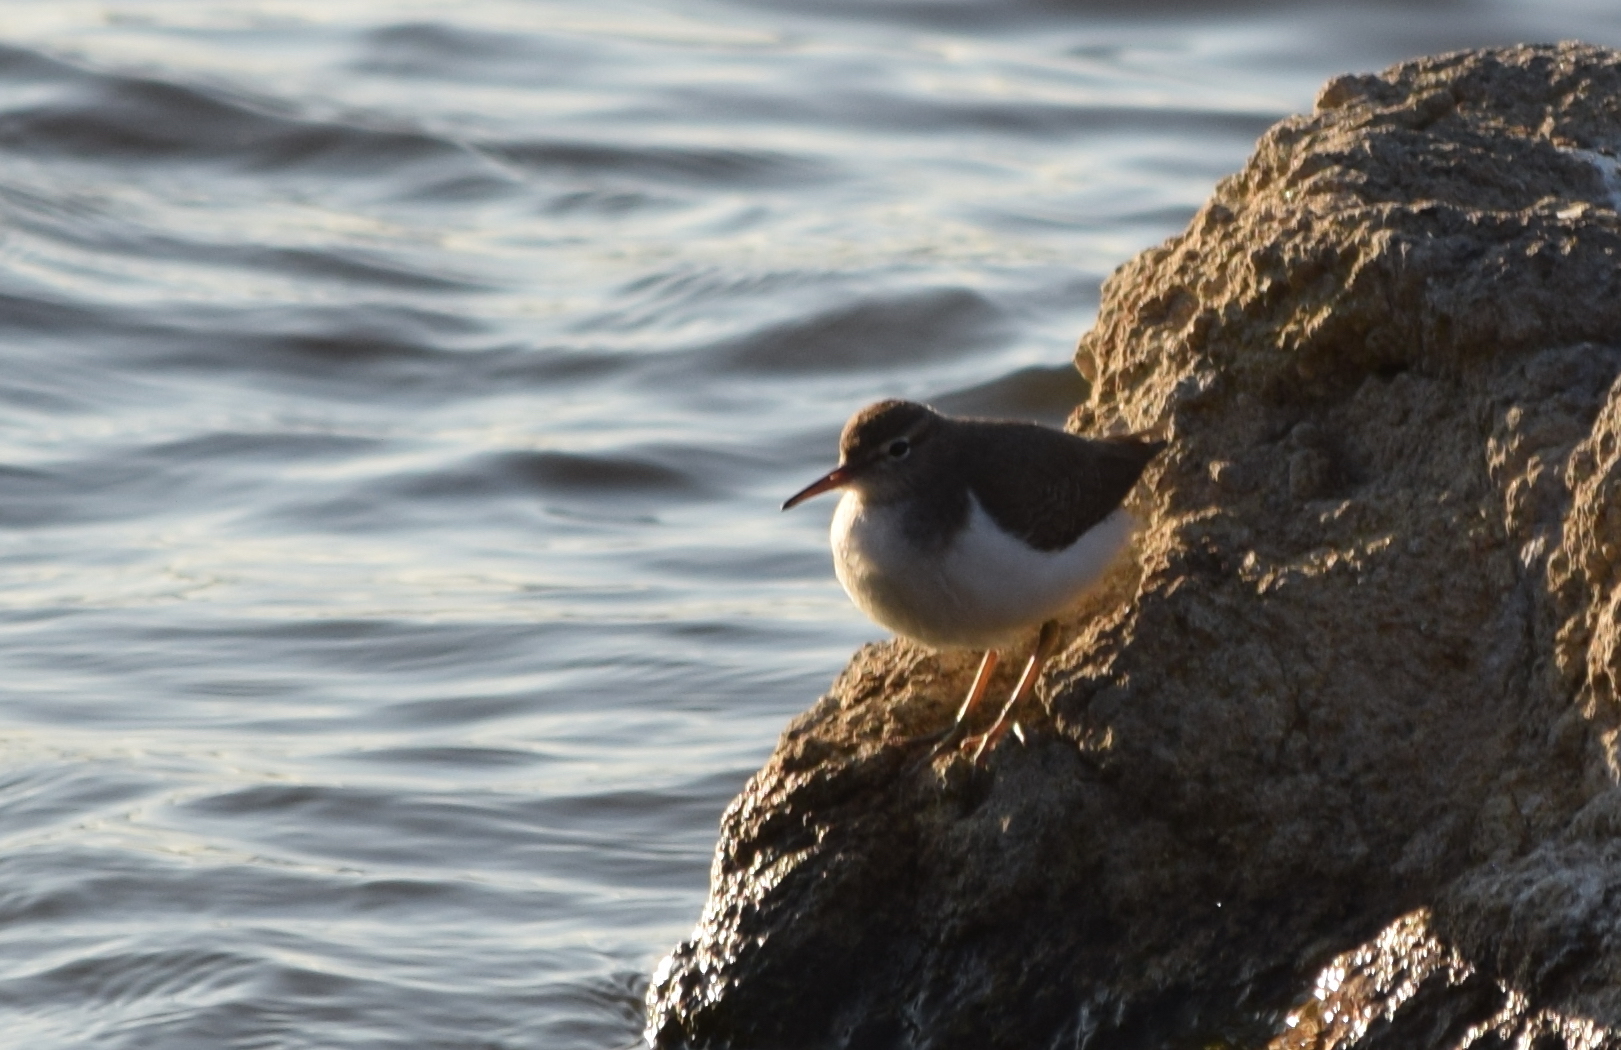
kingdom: Animalia
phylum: Chordata
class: Aves
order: Charadriiformes
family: Scolopacidae
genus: Actitis
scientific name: Actitis macularius
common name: Spotted sandpiper
